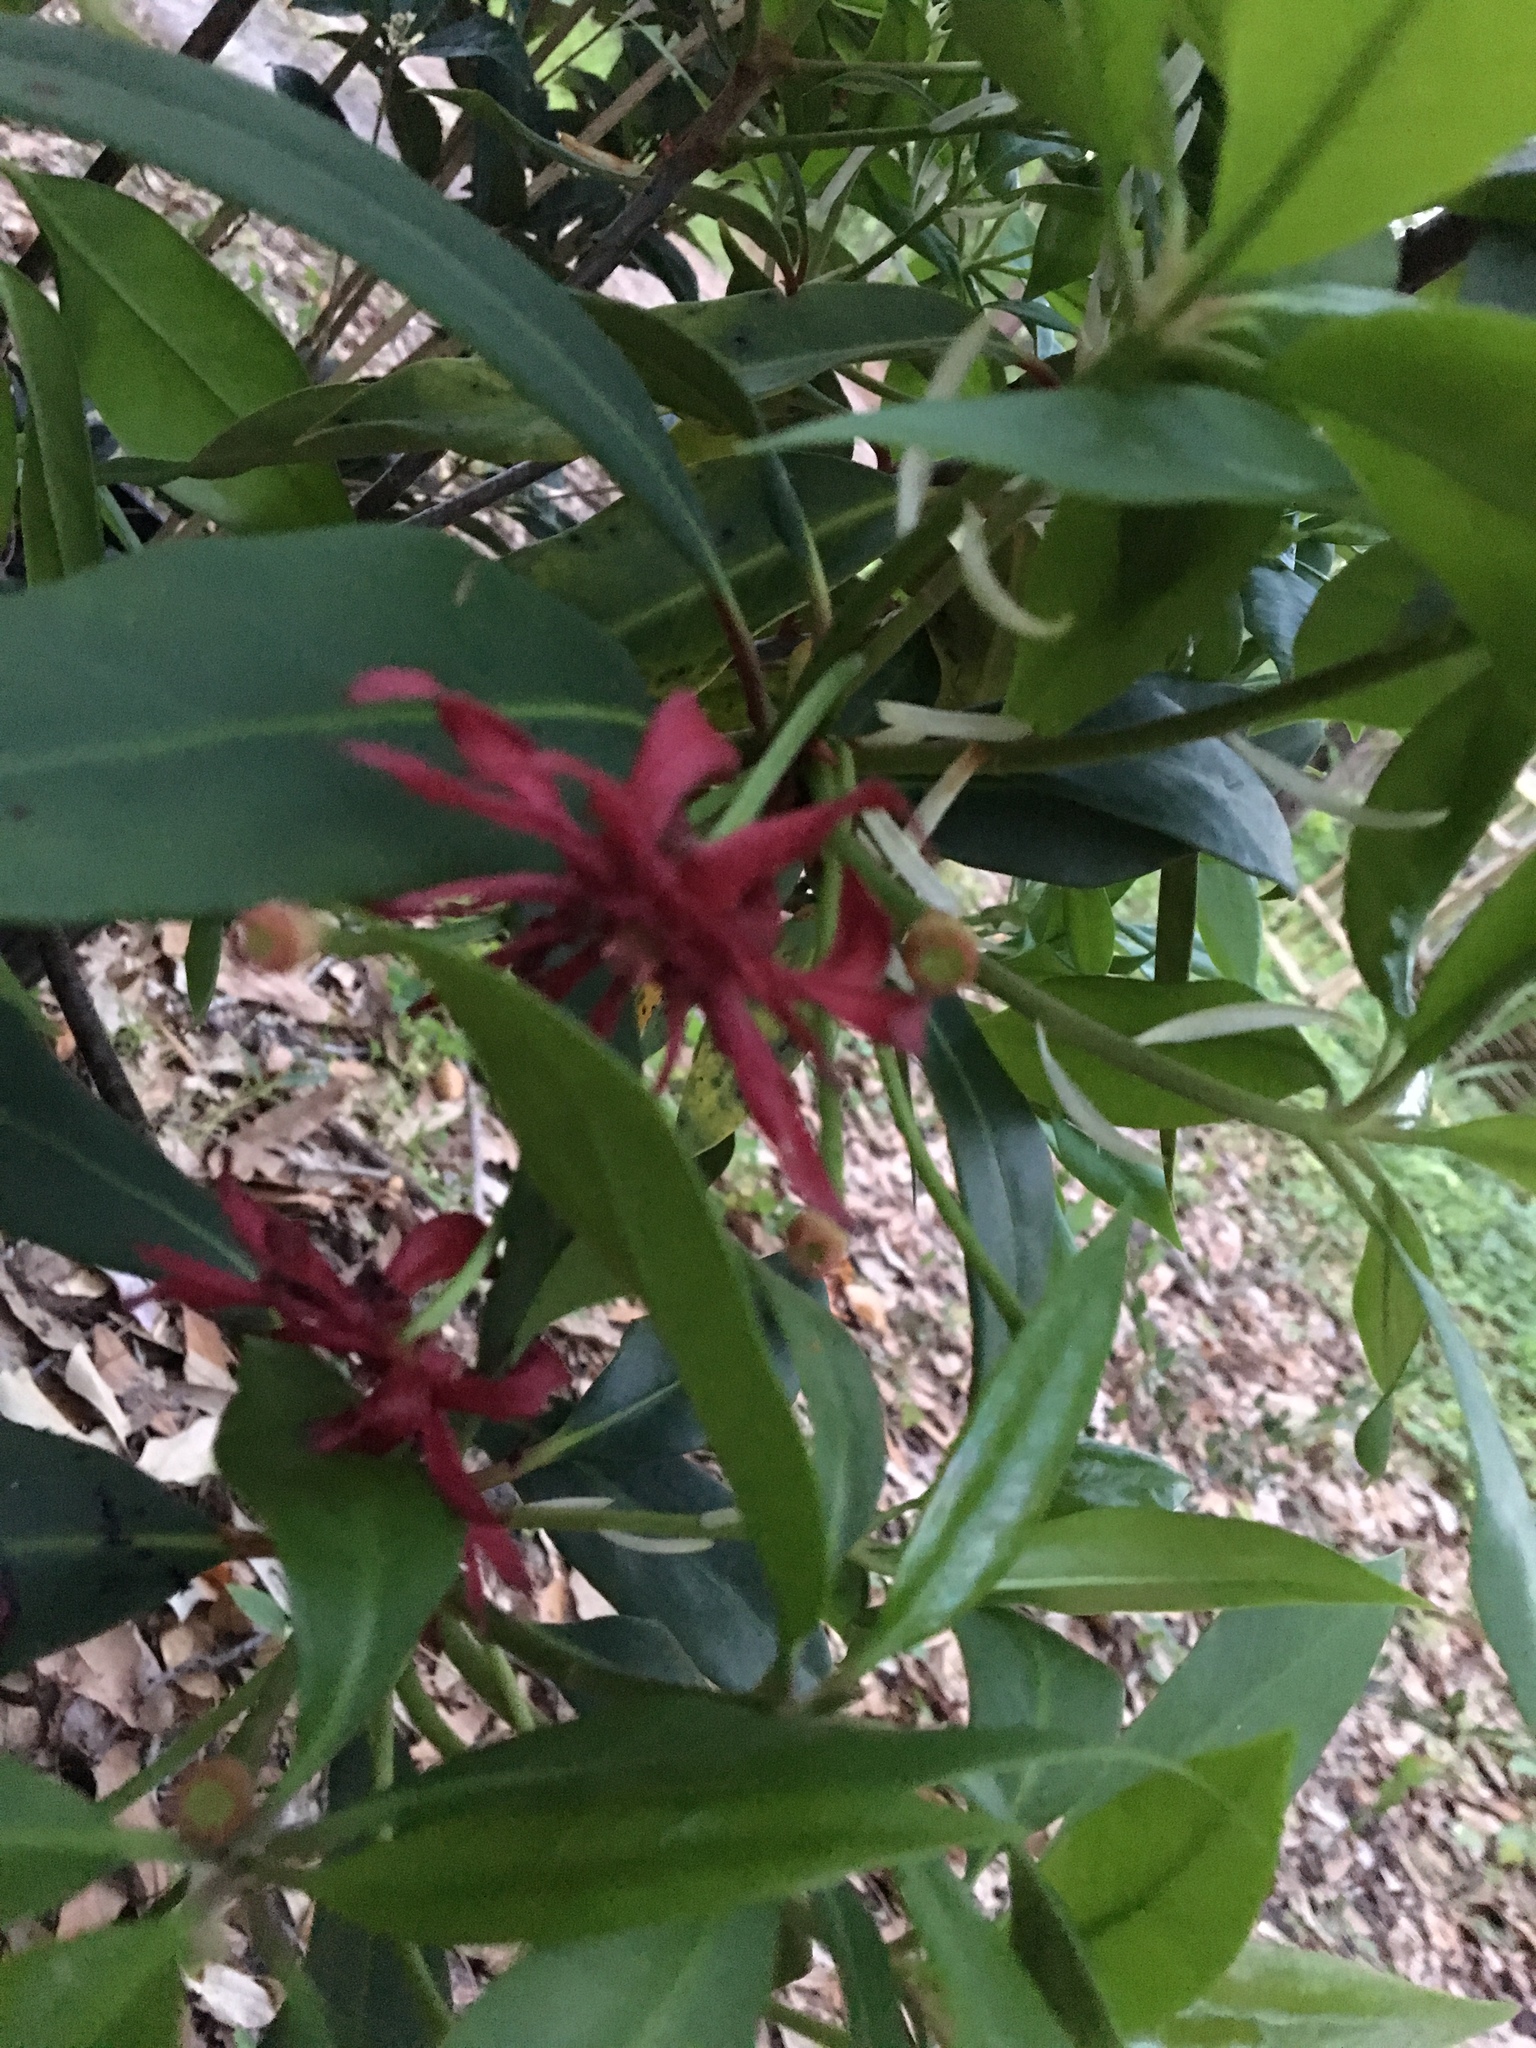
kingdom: Plantae
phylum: Tracheophyta
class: Magnoliopsida
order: Austrobaileyales
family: Schisandraceae
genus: Illicium
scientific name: Illicium floridanum
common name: Florida anisetree
